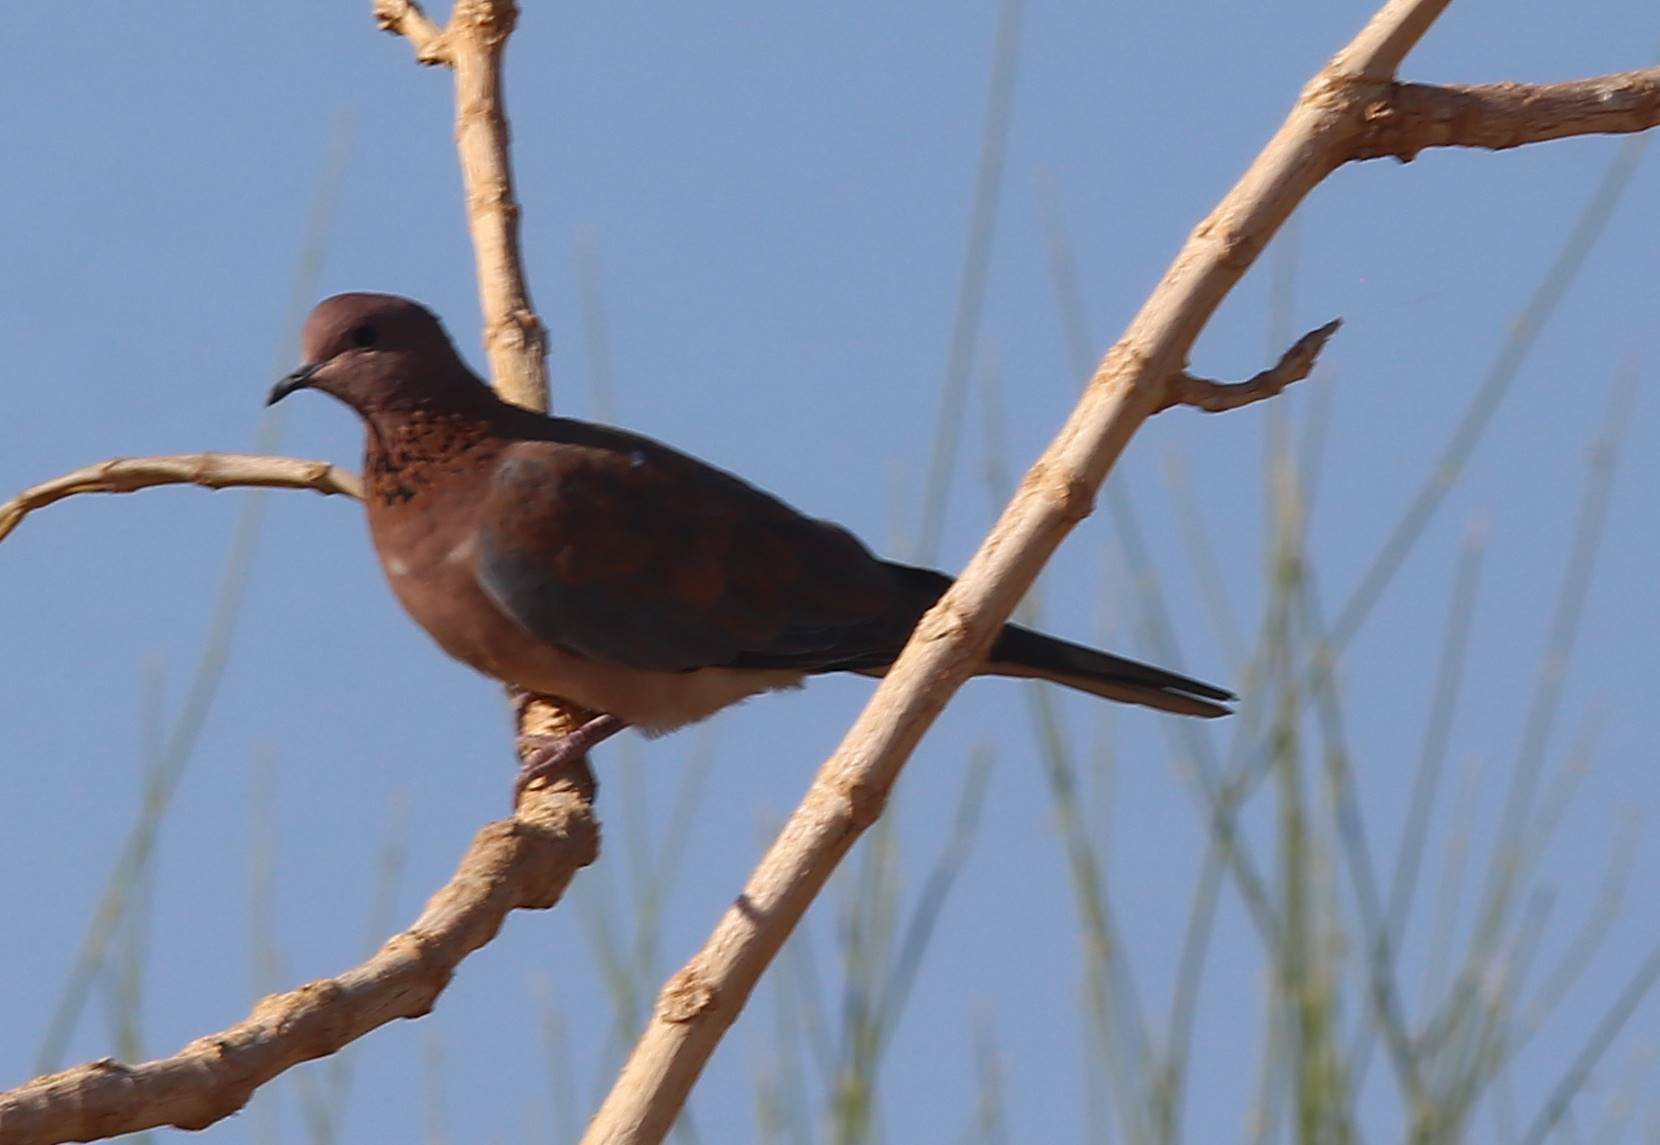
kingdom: Animalia
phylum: Chordata
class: Aves
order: Columbiformes
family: Columbidae
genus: Spilopelia
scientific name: Spilopelia senegalensis
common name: Laughing dove
